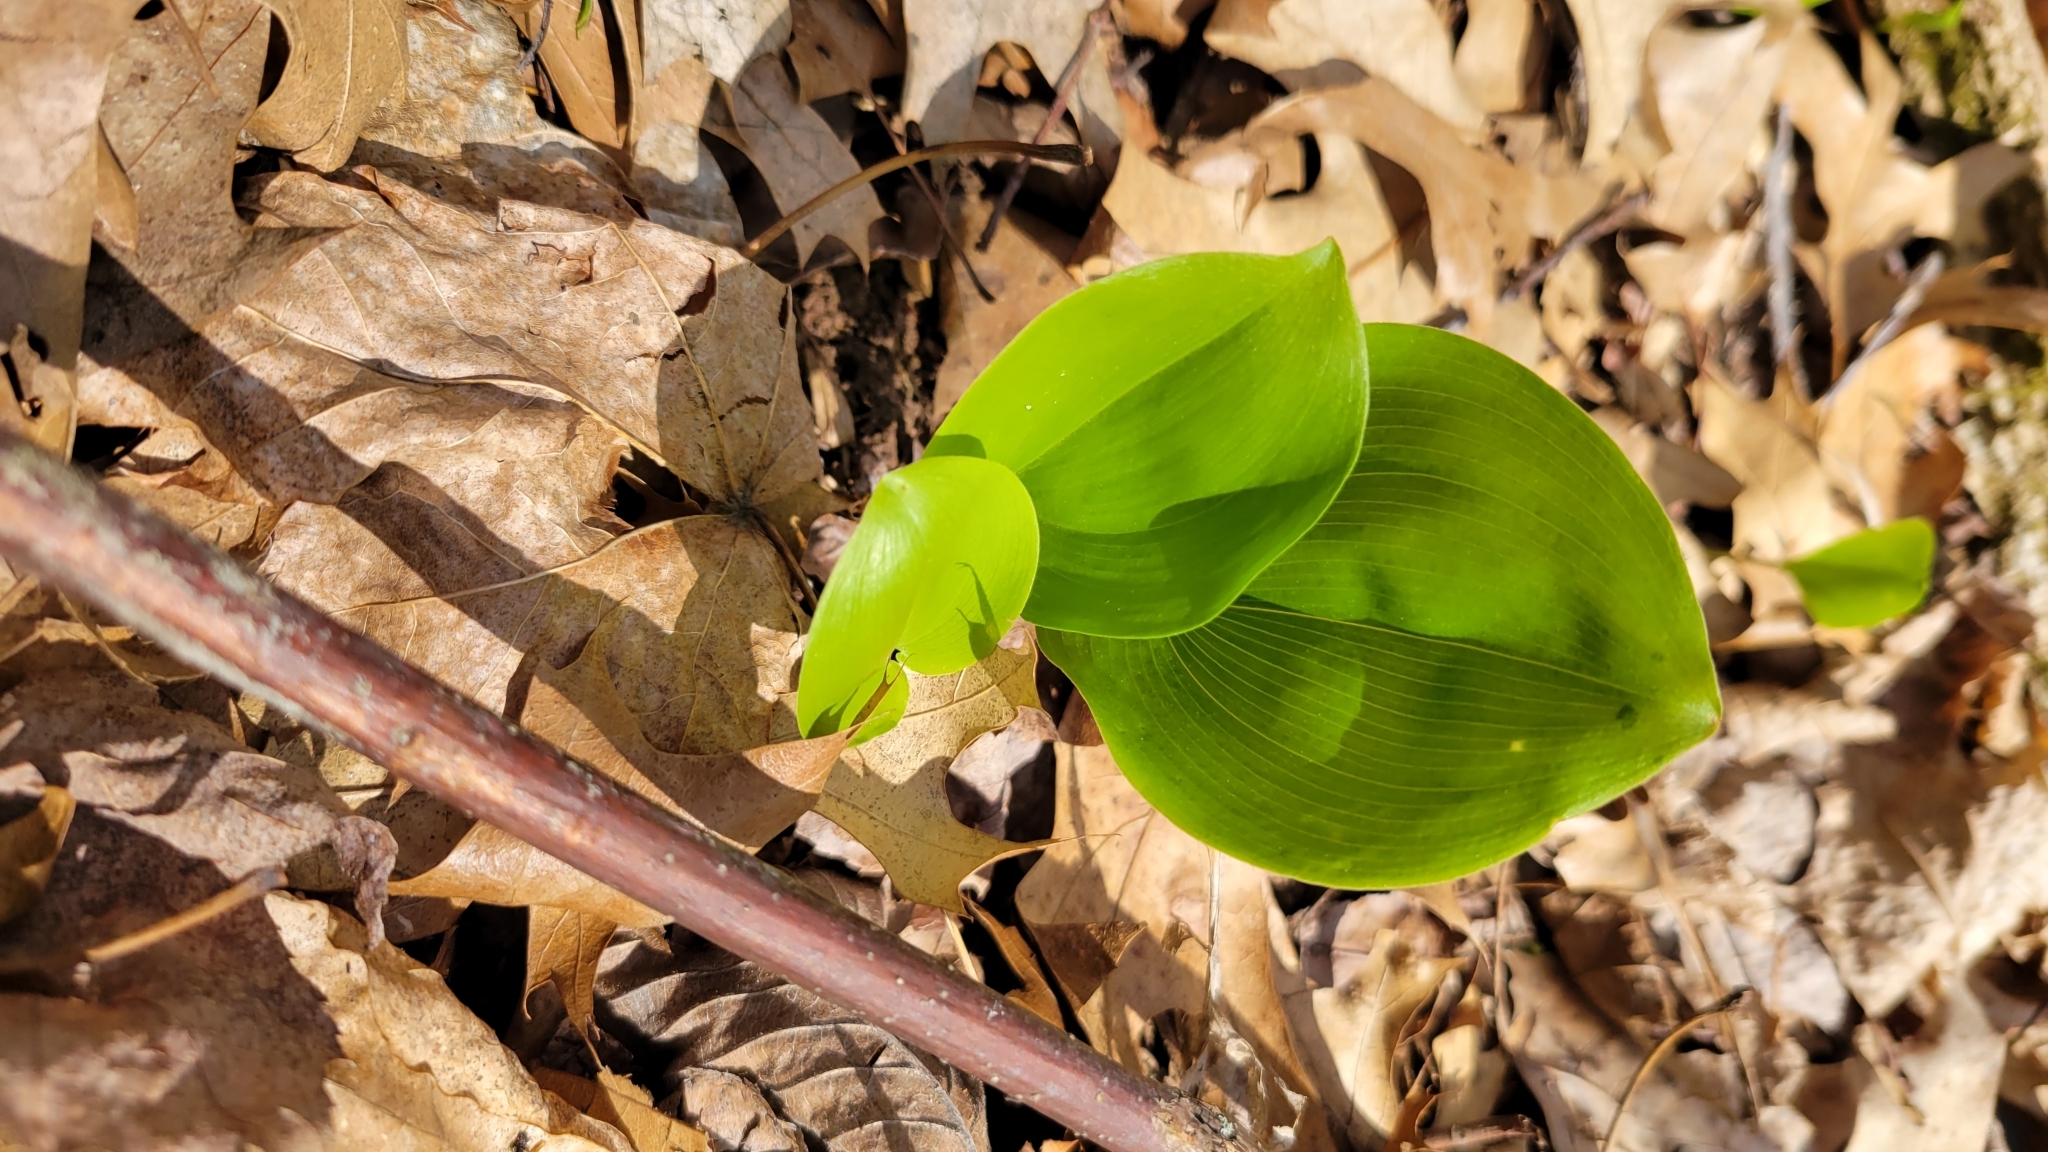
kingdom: Plantae
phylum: Tracheophyta
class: Liliopsida
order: Asparagales
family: Asparagaceae
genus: Maianthemum
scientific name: Maianthemum canadense
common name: False lily-of-the-valley
